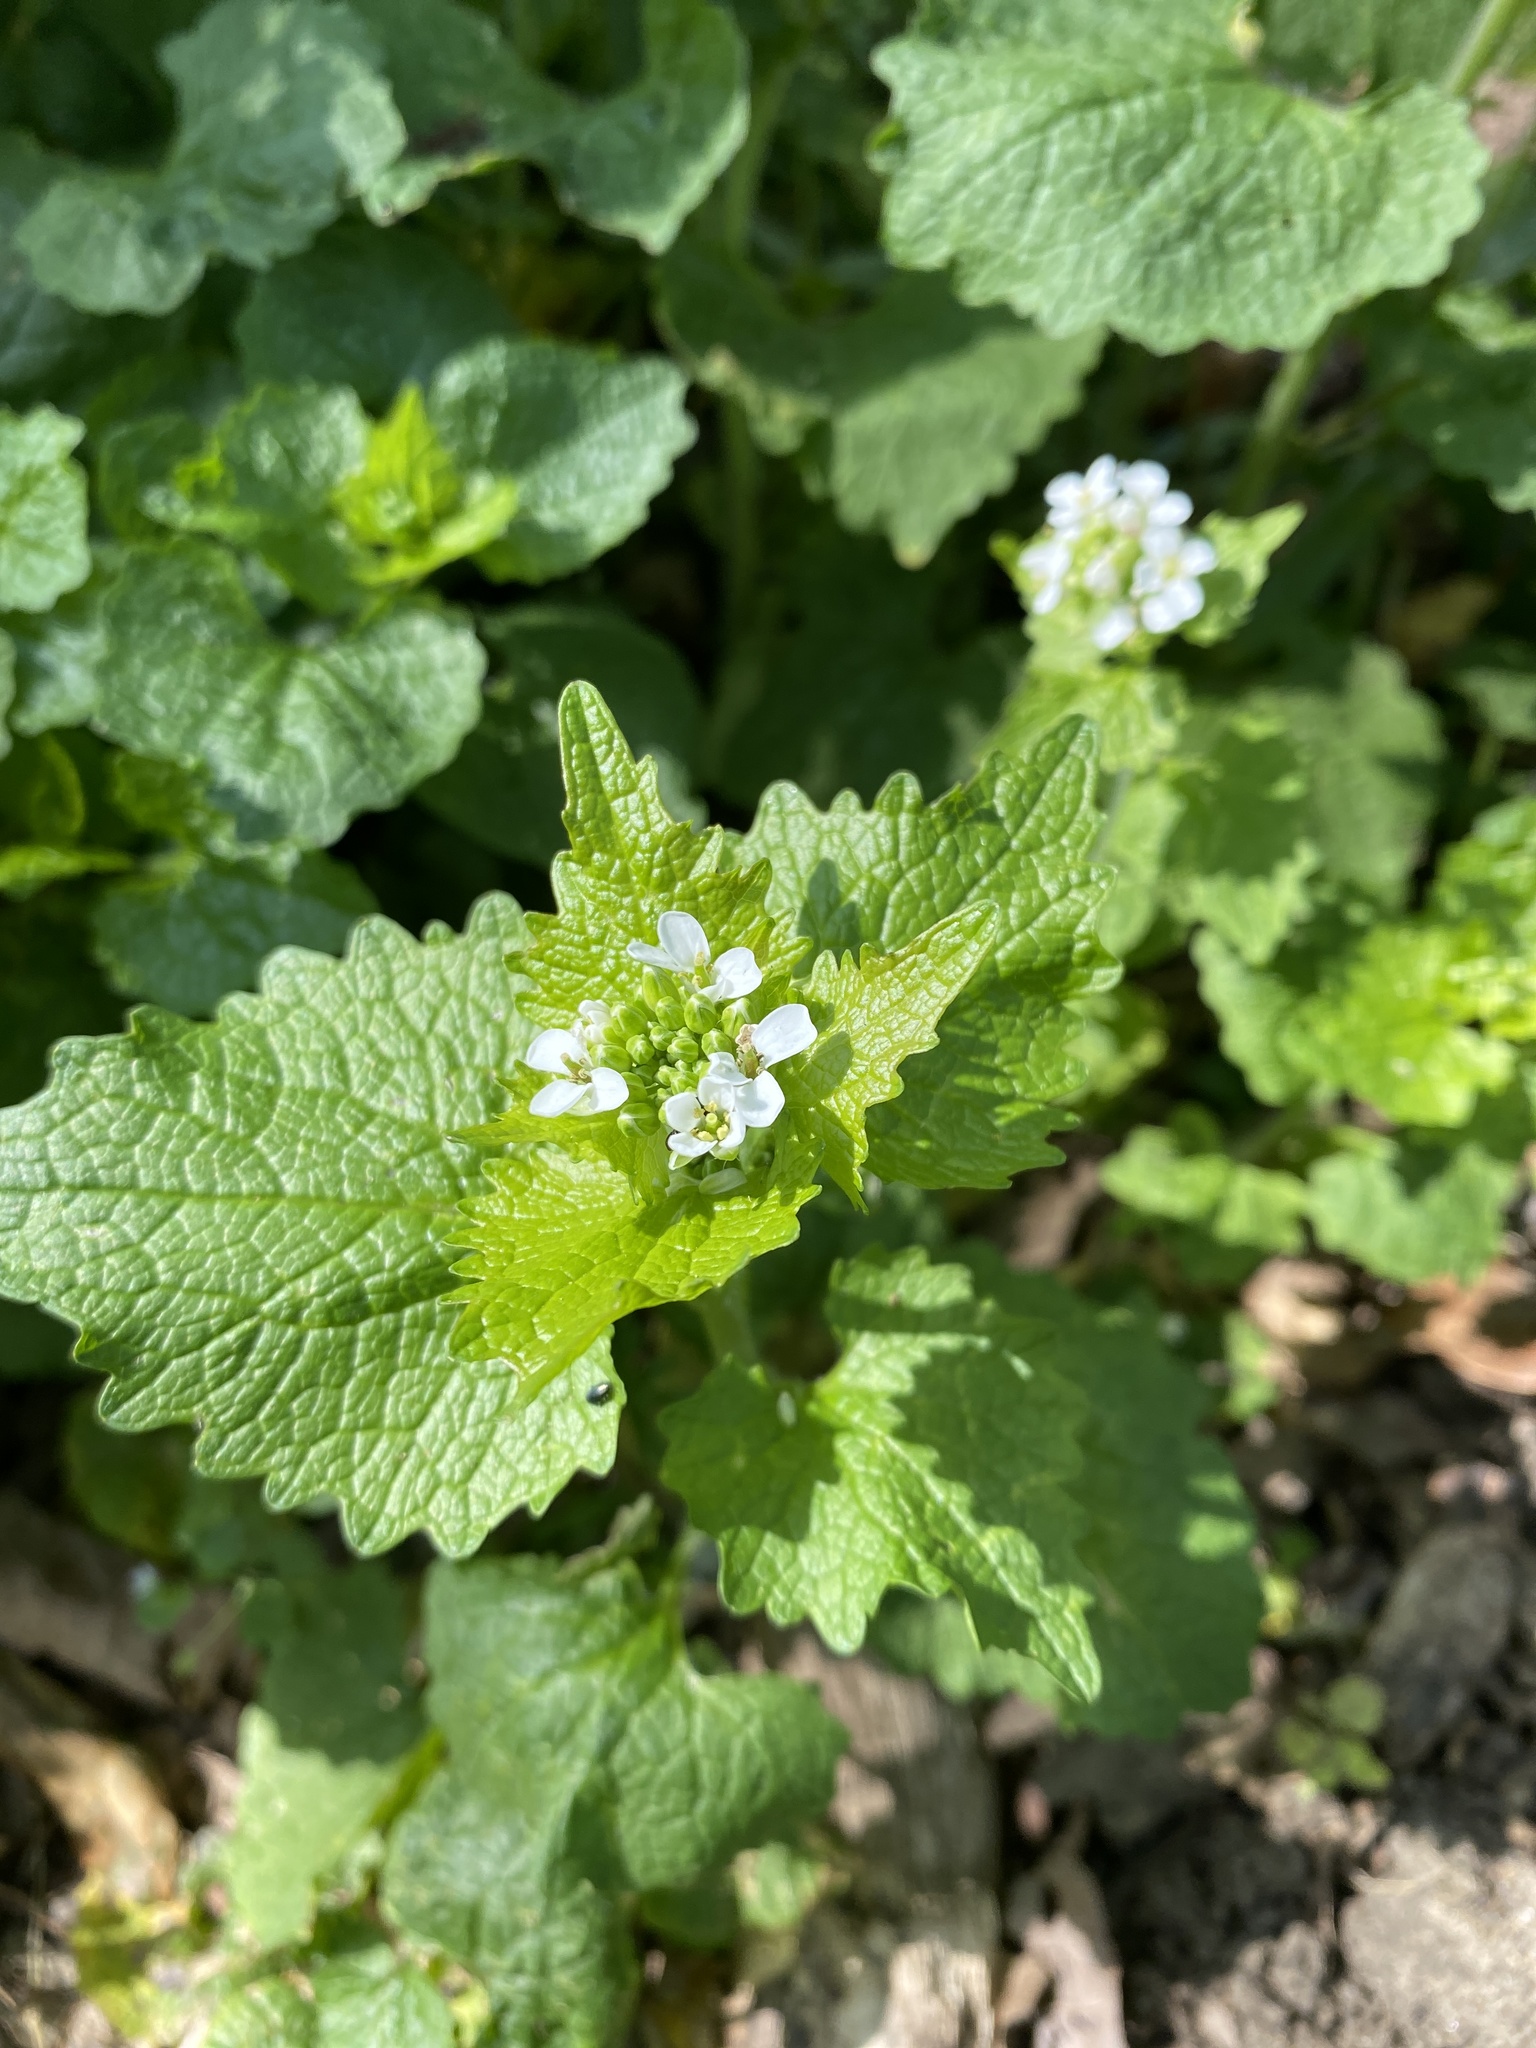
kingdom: Plantae
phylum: Tracheophyta
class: Magnoliopsida
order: Brassicales
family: Brassicaceae
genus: Alliaria
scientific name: Alliaria petiolata
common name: Garlic mustard
